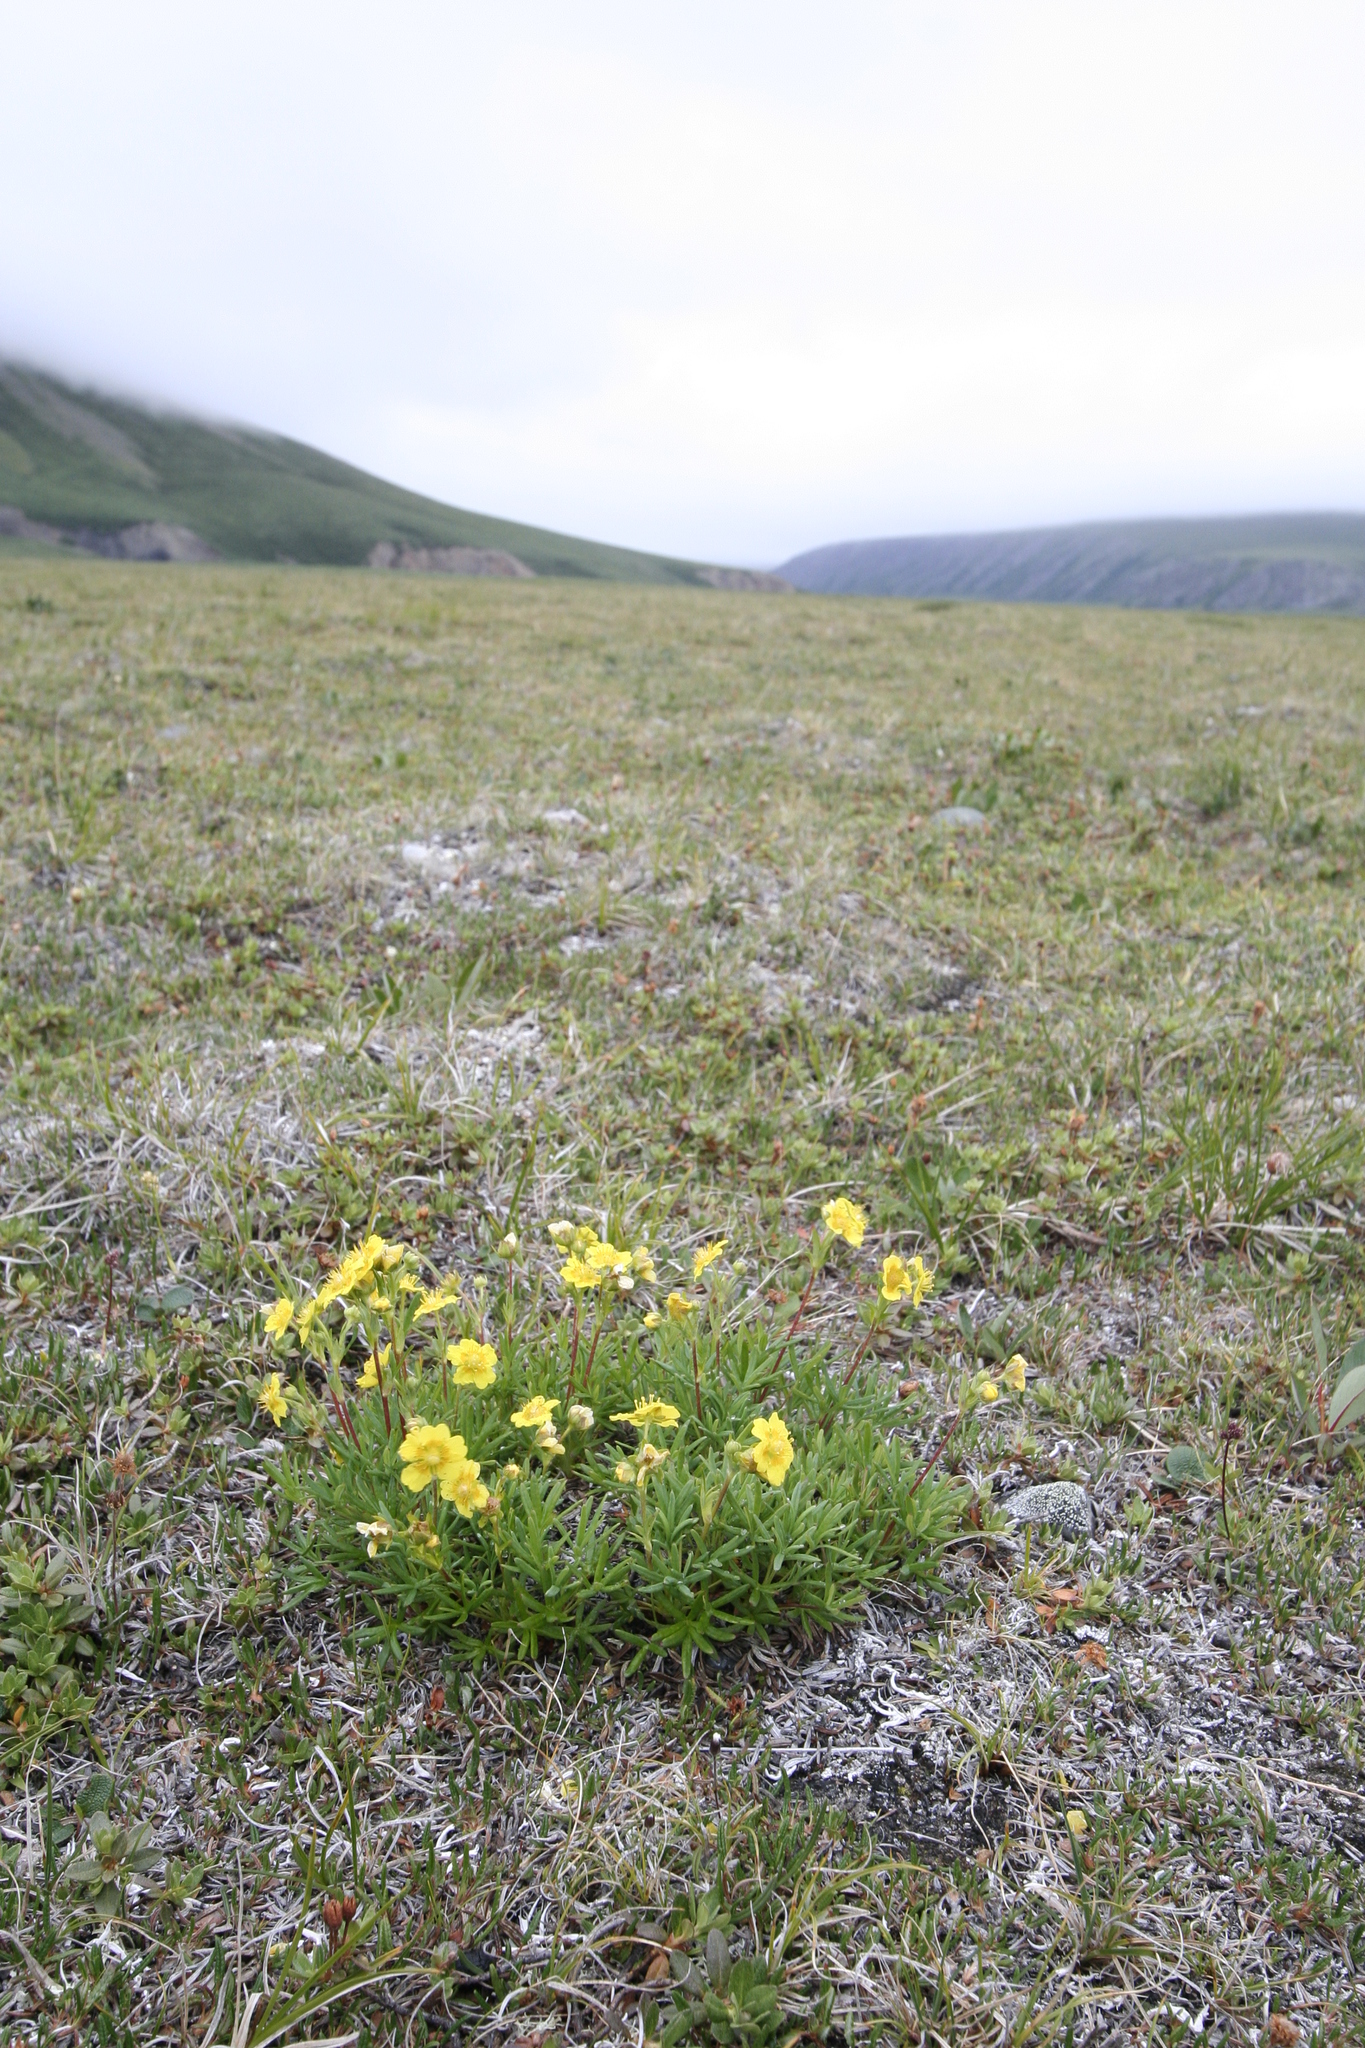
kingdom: Plantae
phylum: Tracheophyta
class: Magnoliopsida
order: Rosales
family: Rosaceae
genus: Potentilla
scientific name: Potentilla biflora
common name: Two-flowered cinquefoil
